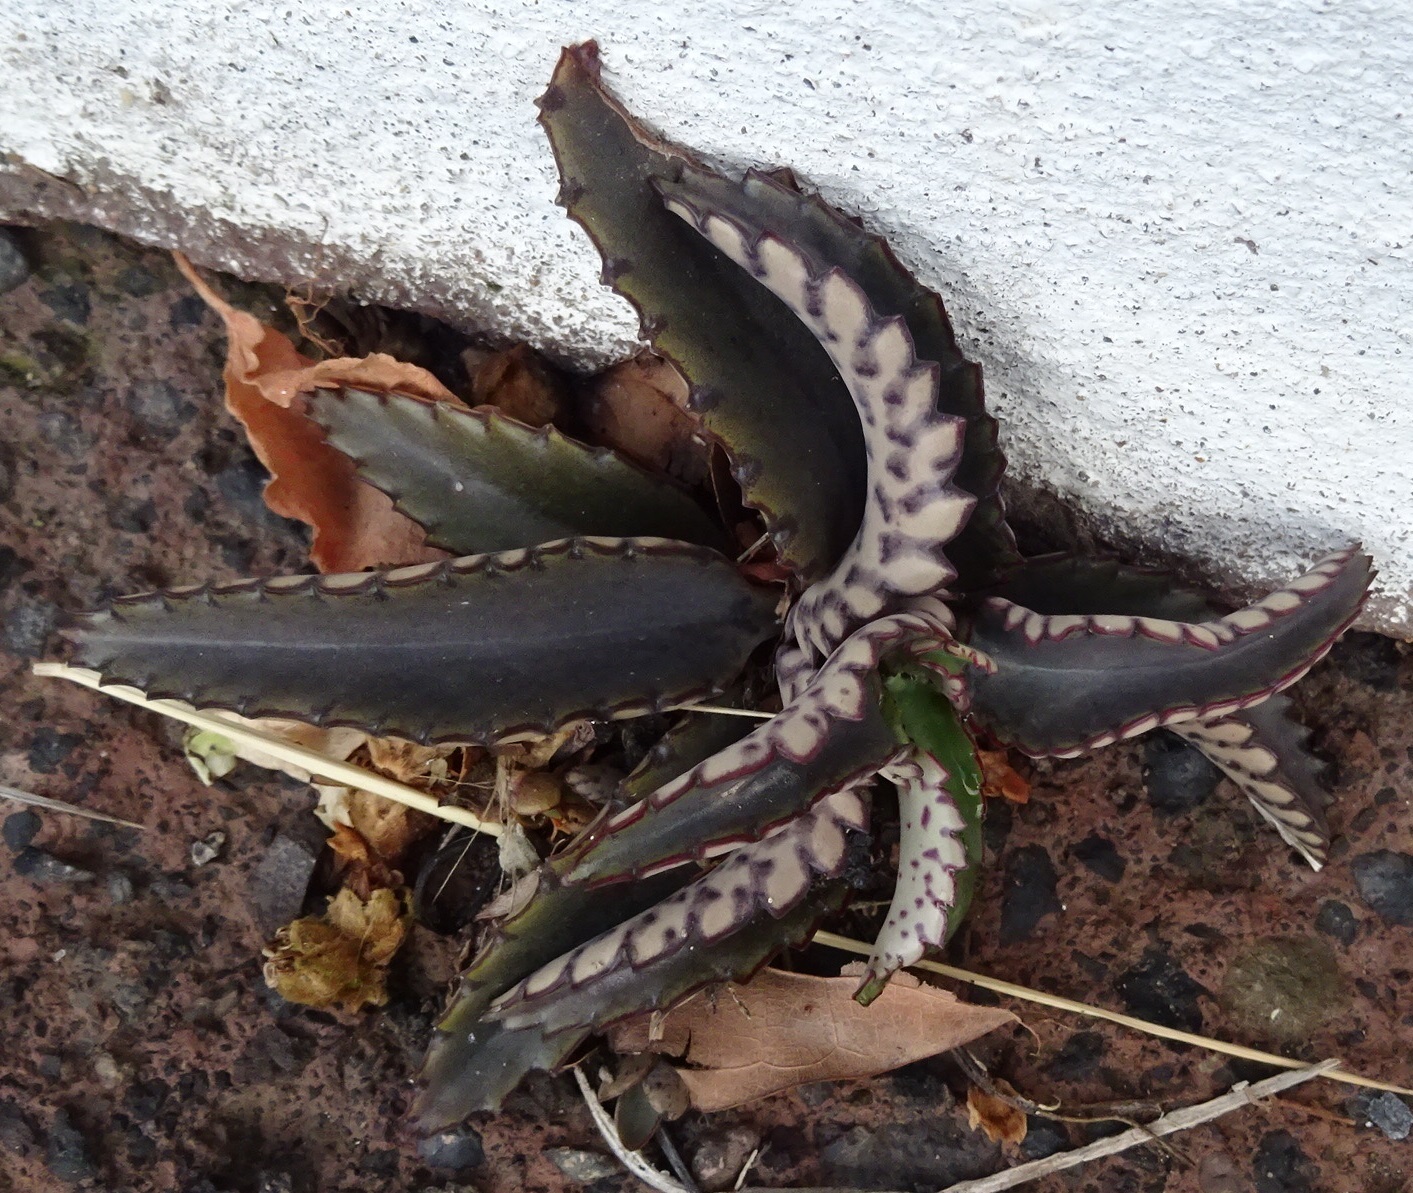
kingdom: Plantae
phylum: Tracheophyta
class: Magnoliopsida
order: Saxifragales
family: Crassulaceae
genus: Kalanchoe
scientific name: Kalanchoe daigremontiana
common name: Devil's backbone
